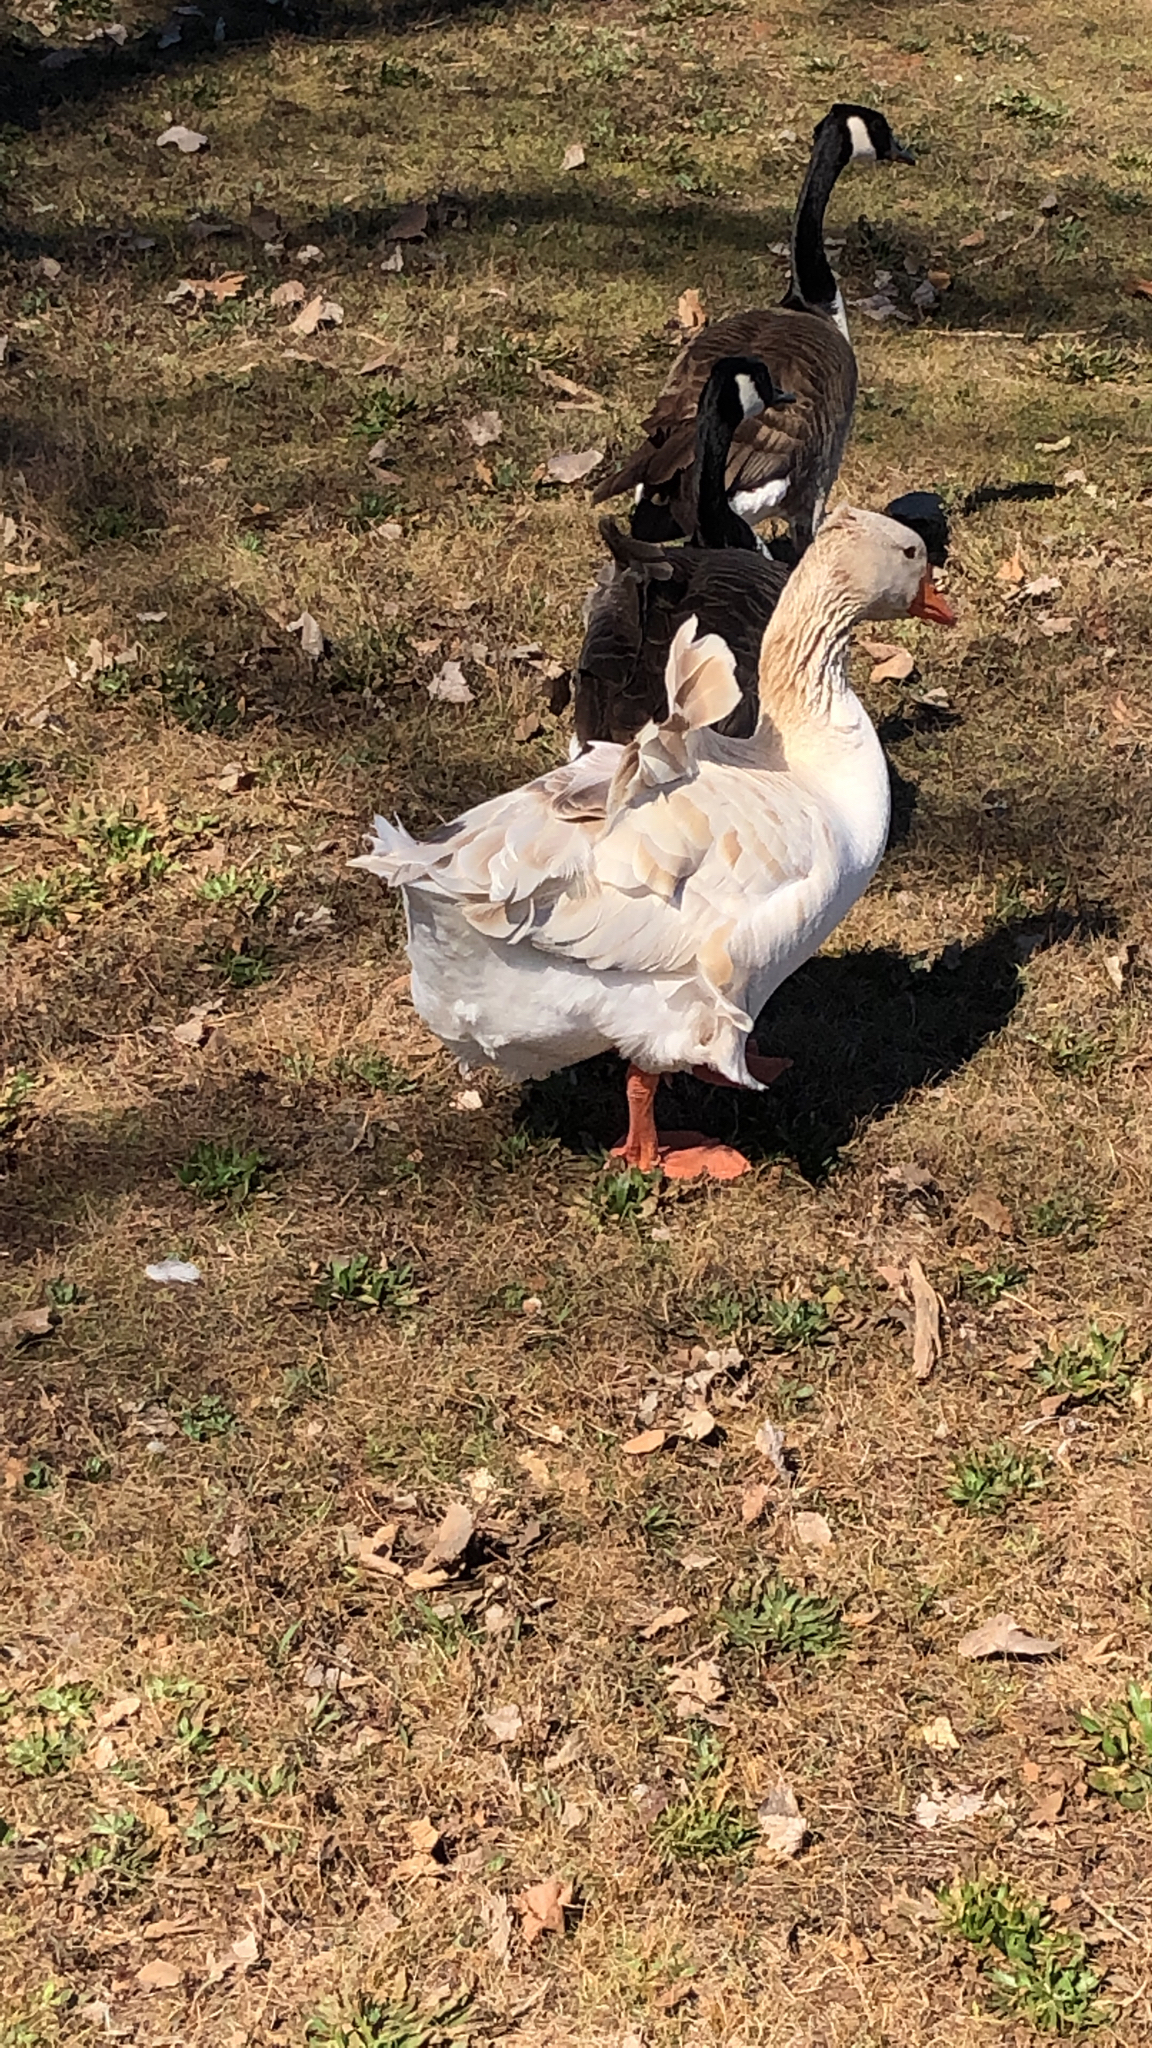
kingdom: Animalia
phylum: Chordata
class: Aves
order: Anseriformes
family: Anatidae
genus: Anser
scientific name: Anser anser
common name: Greylag goose
